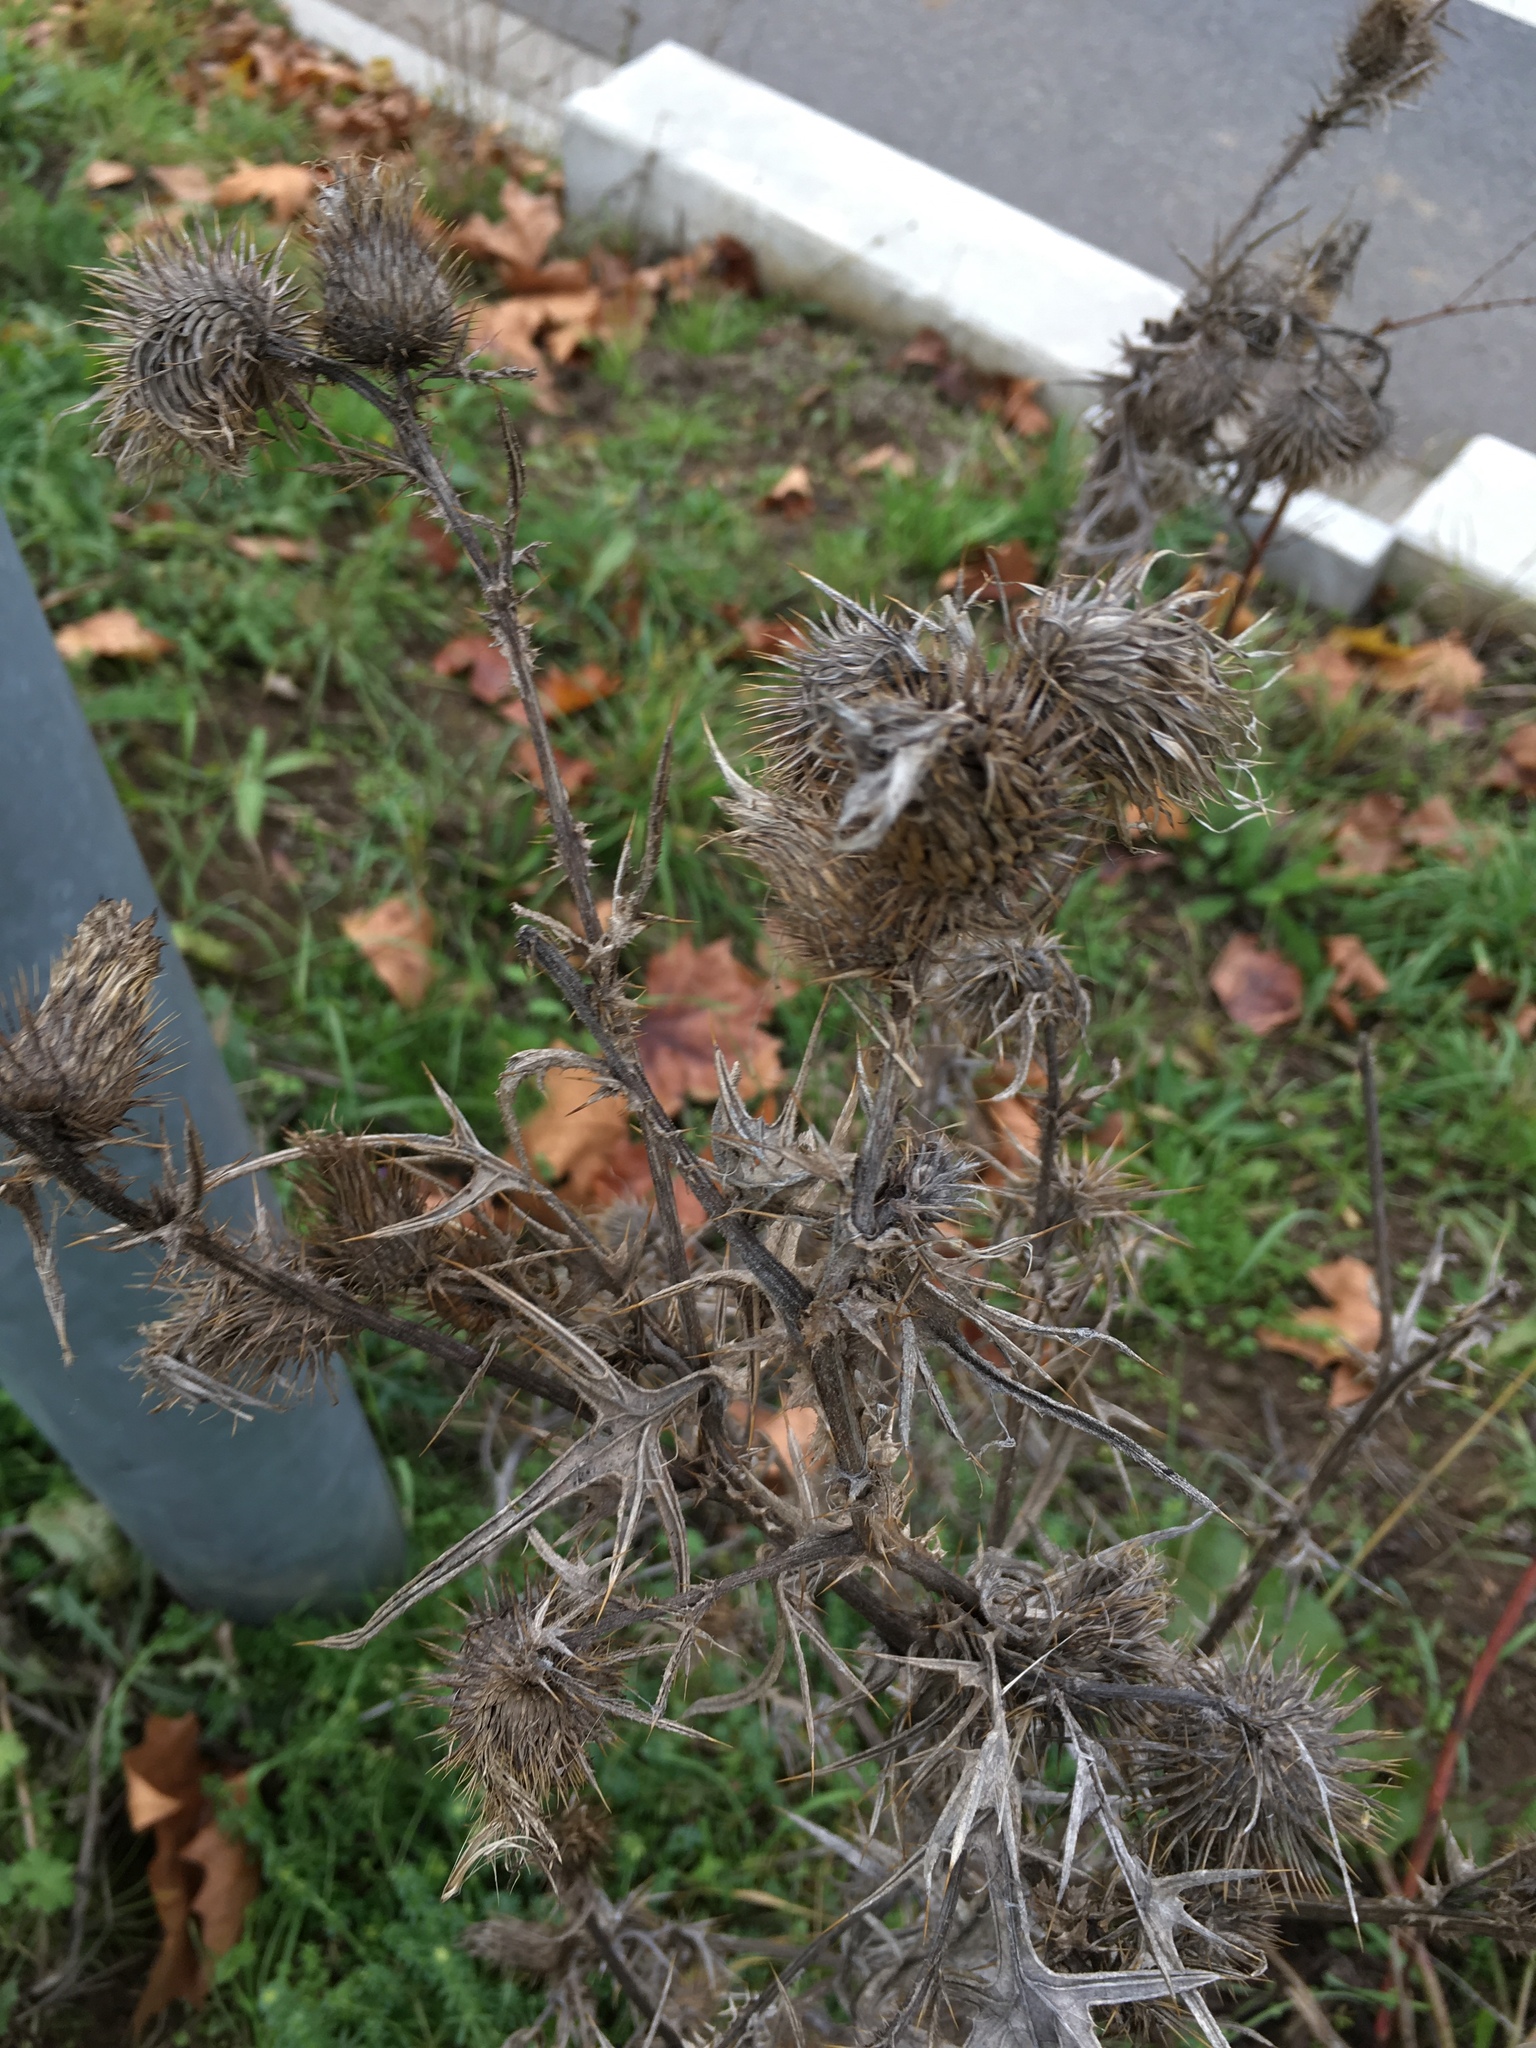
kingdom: Plantae
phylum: Tracheophyta
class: Magnoliopsida
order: Asterales
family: Asteraceae
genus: Cirsium
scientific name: Cirsium vulgare
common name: Bull thistle
